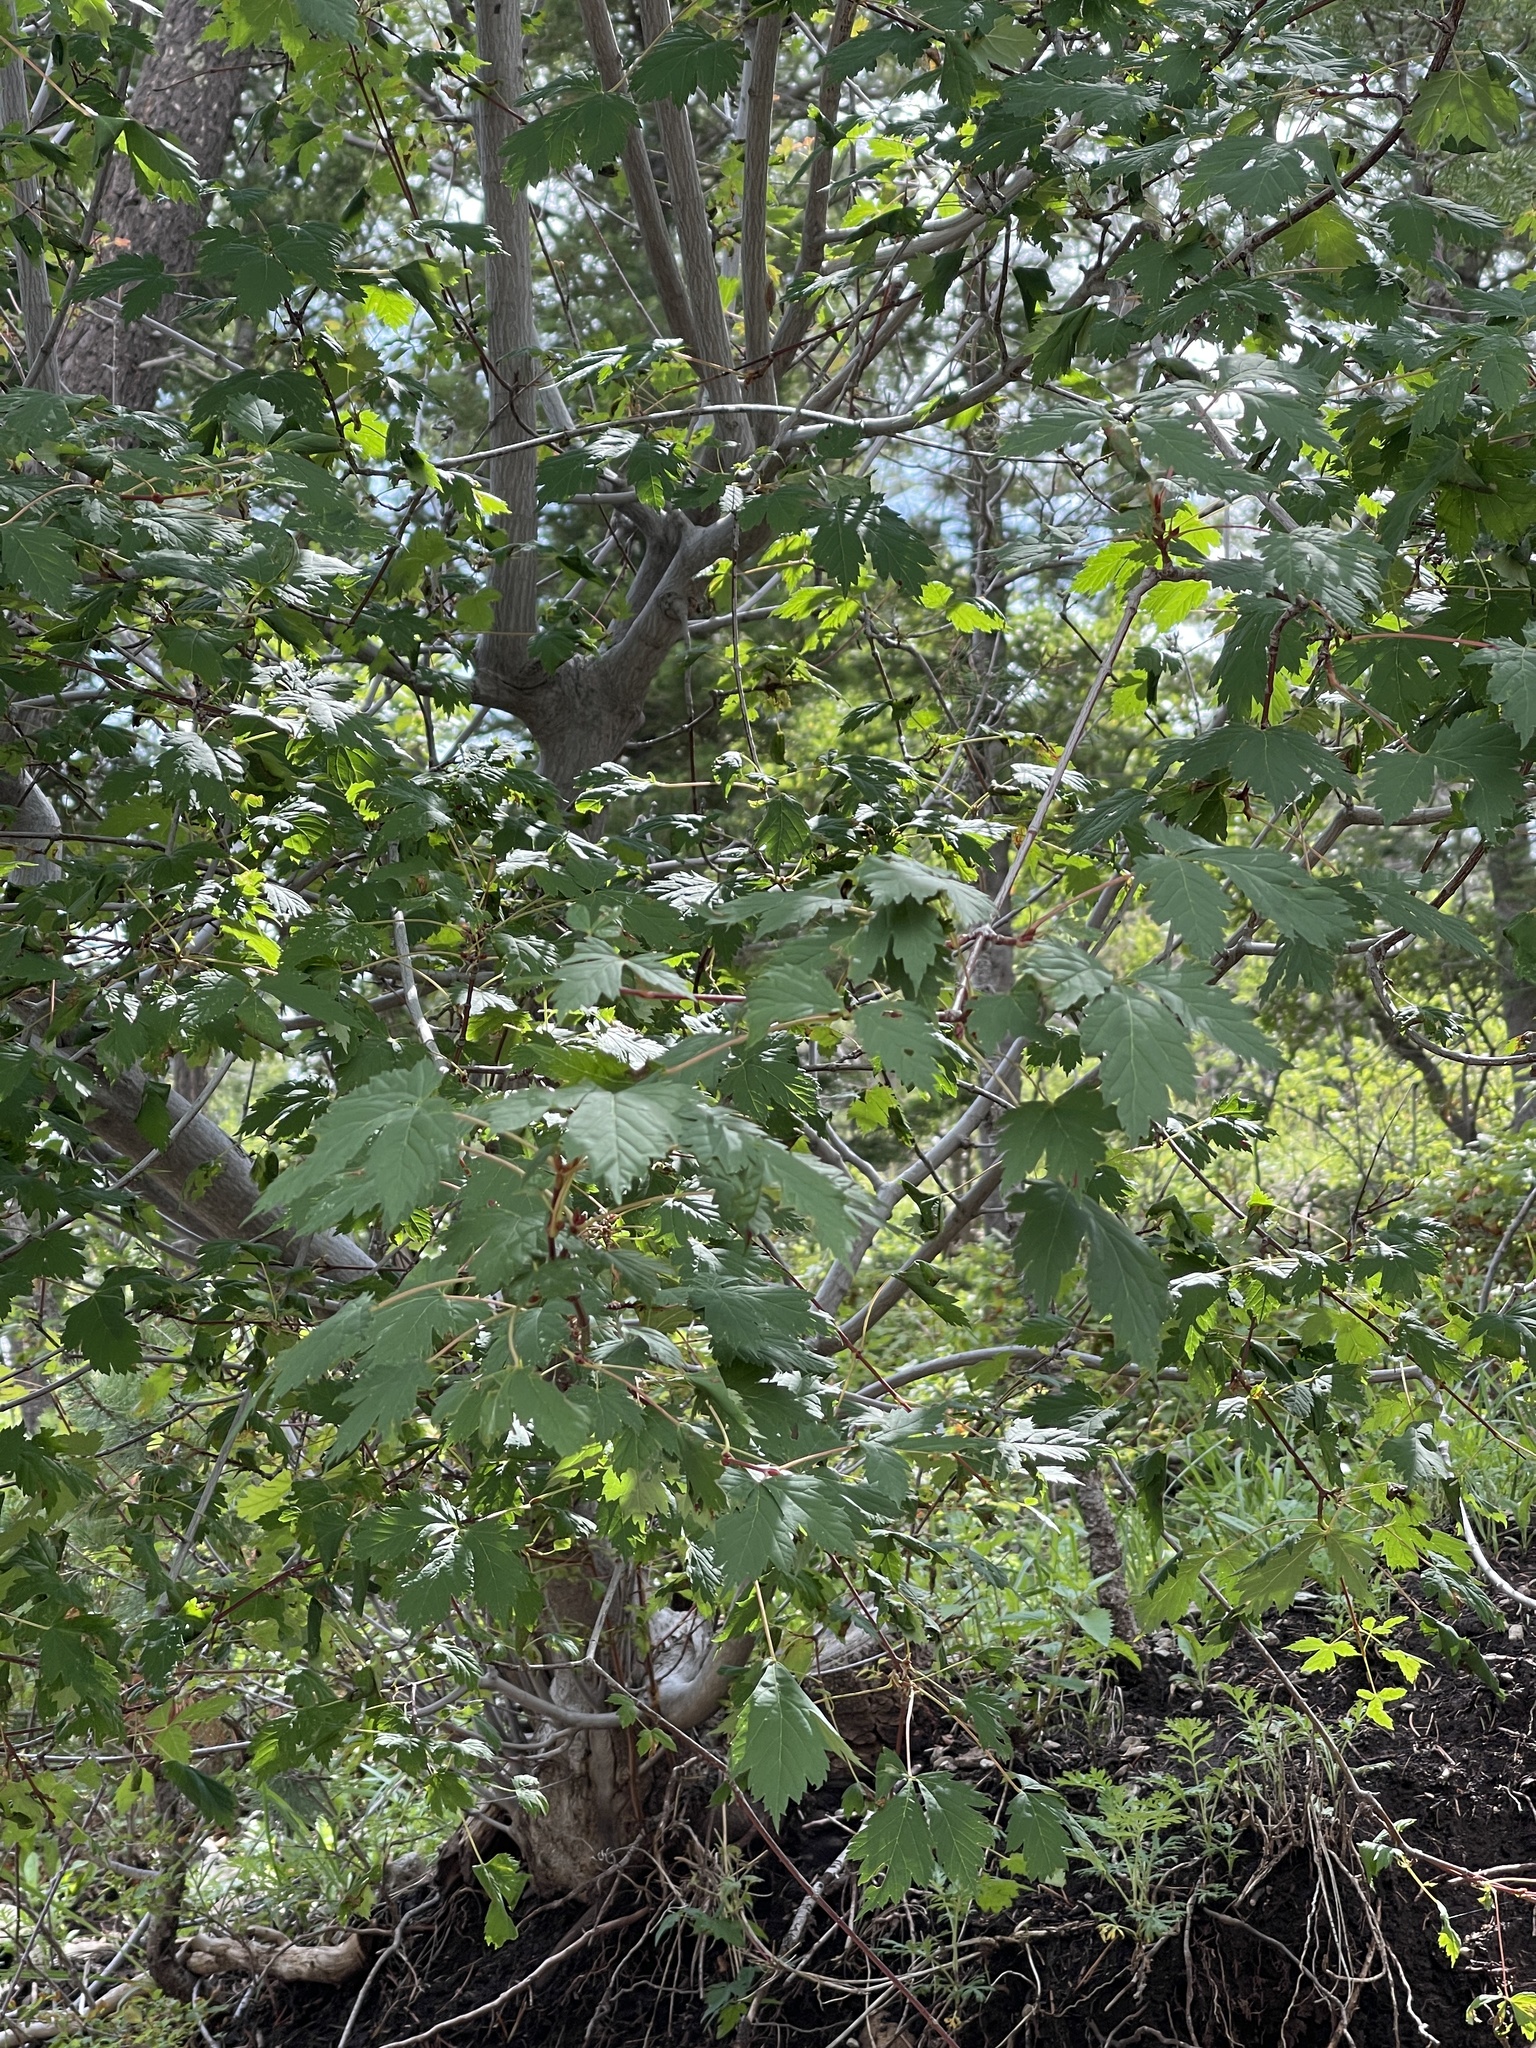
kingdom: Plantae
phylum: Tracheophyta
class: Magnoliopsida
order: Sapindales
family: Sapindaceae
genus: Acer
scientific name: Acer glabrum
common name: Rocky mountain maple
